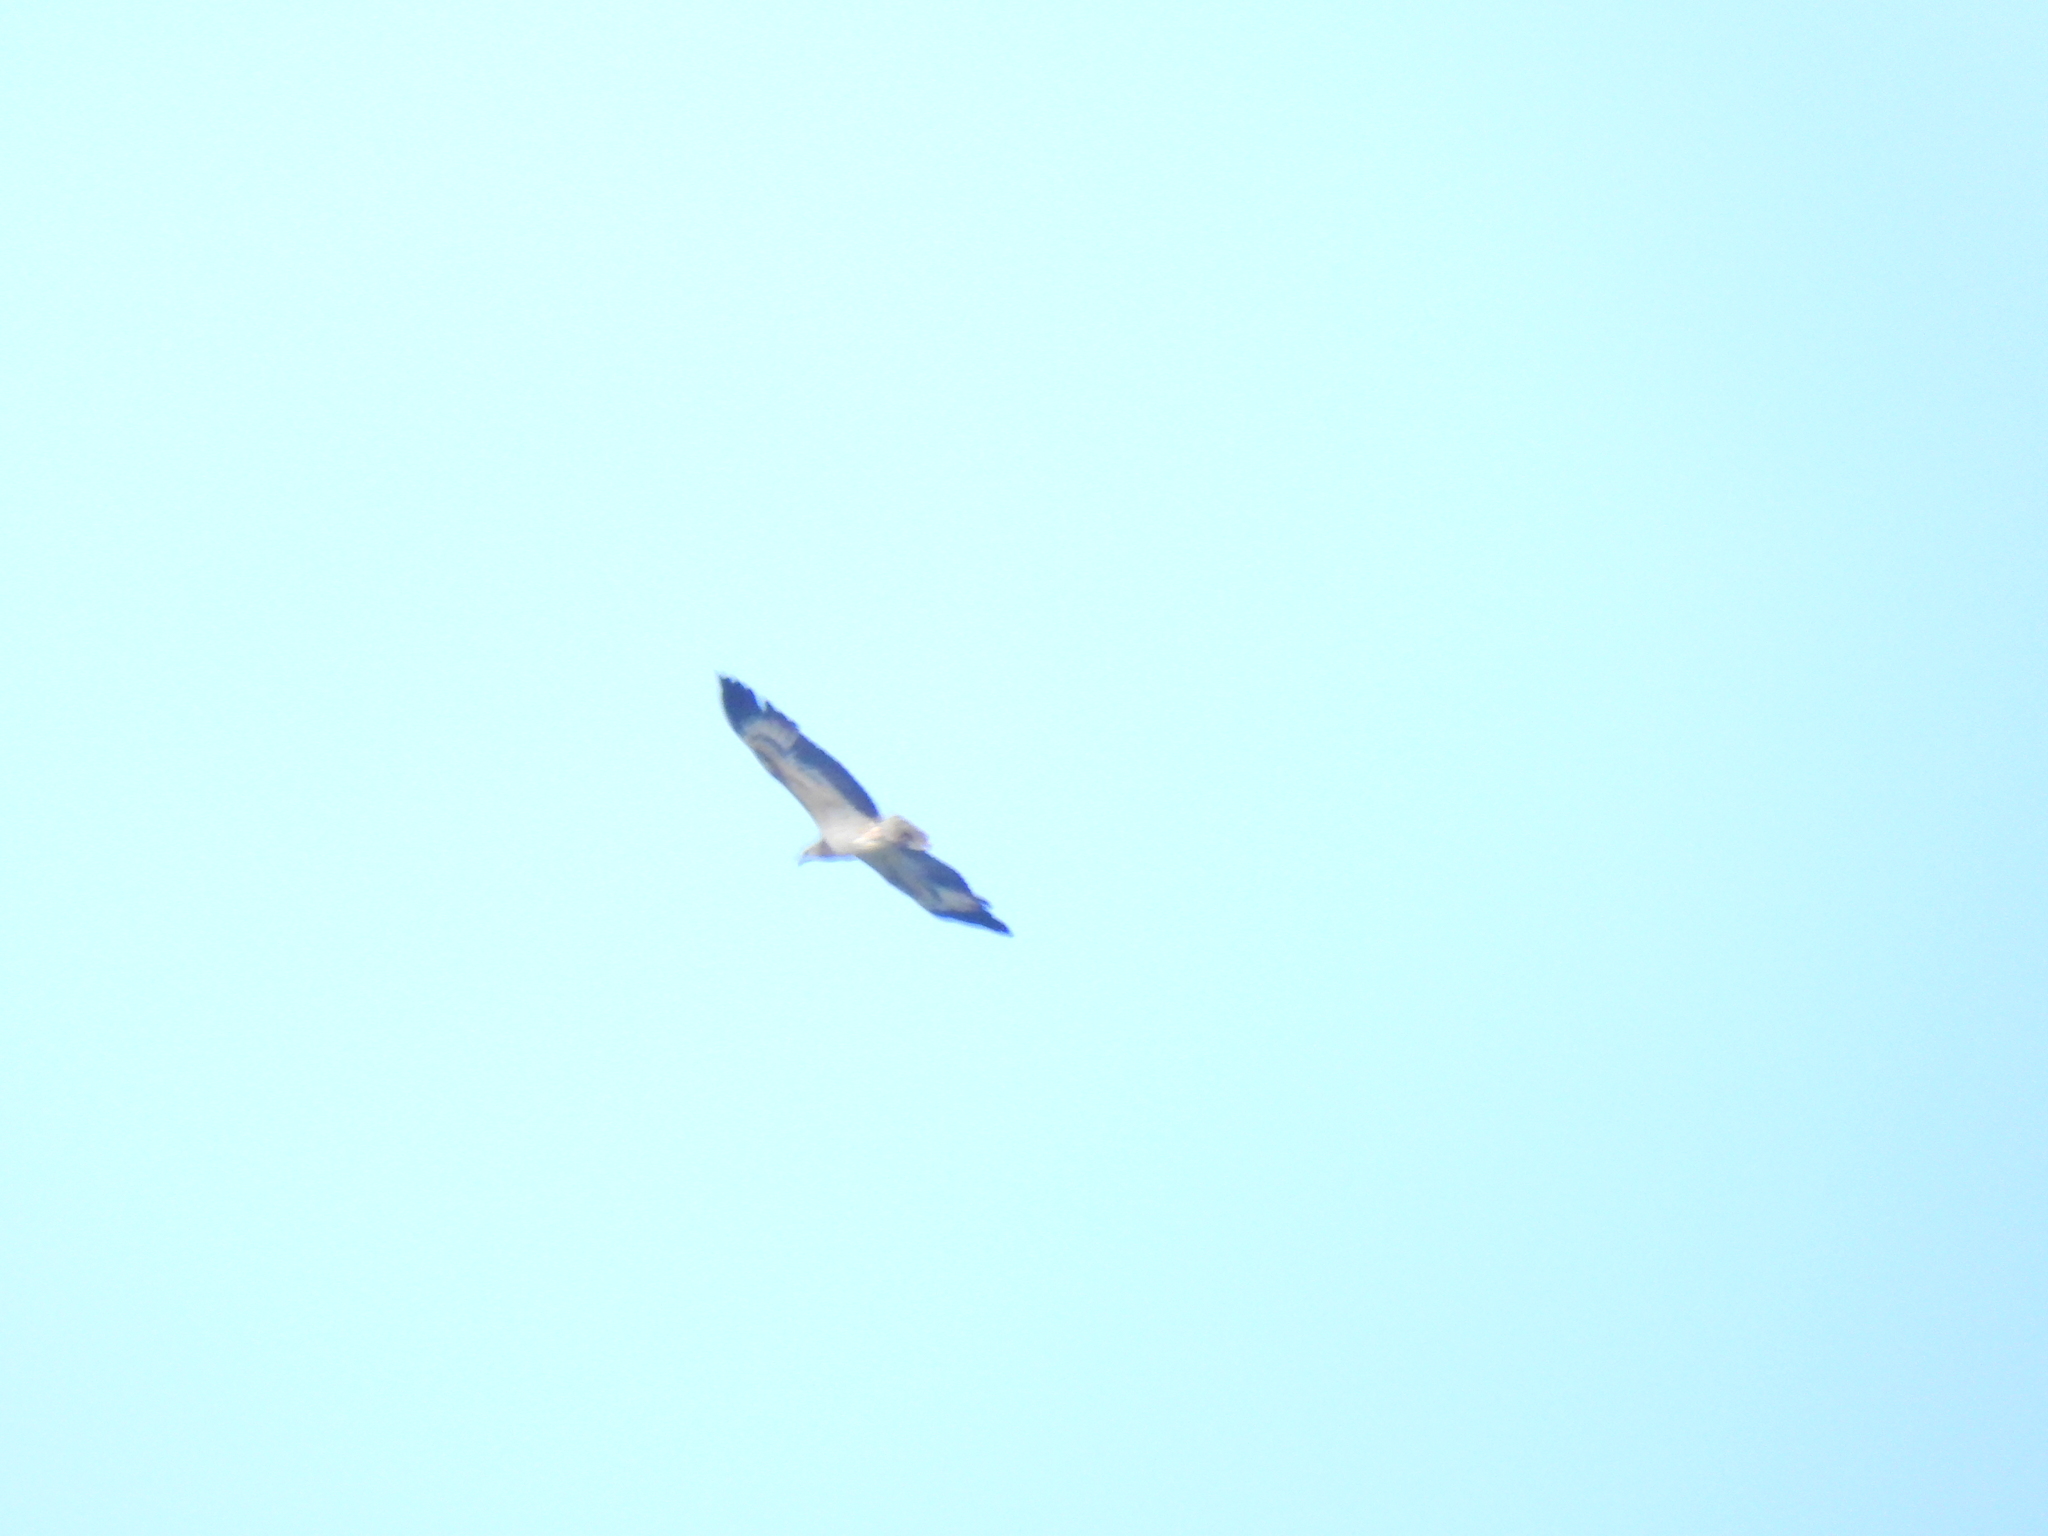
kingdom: Animalia
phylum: Chordata
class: Aves
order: Accipitriformes
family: Accipitridae
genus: Haliaeetus
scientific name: Haliaeetus leucogaster
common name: White-bellied sea eagle
